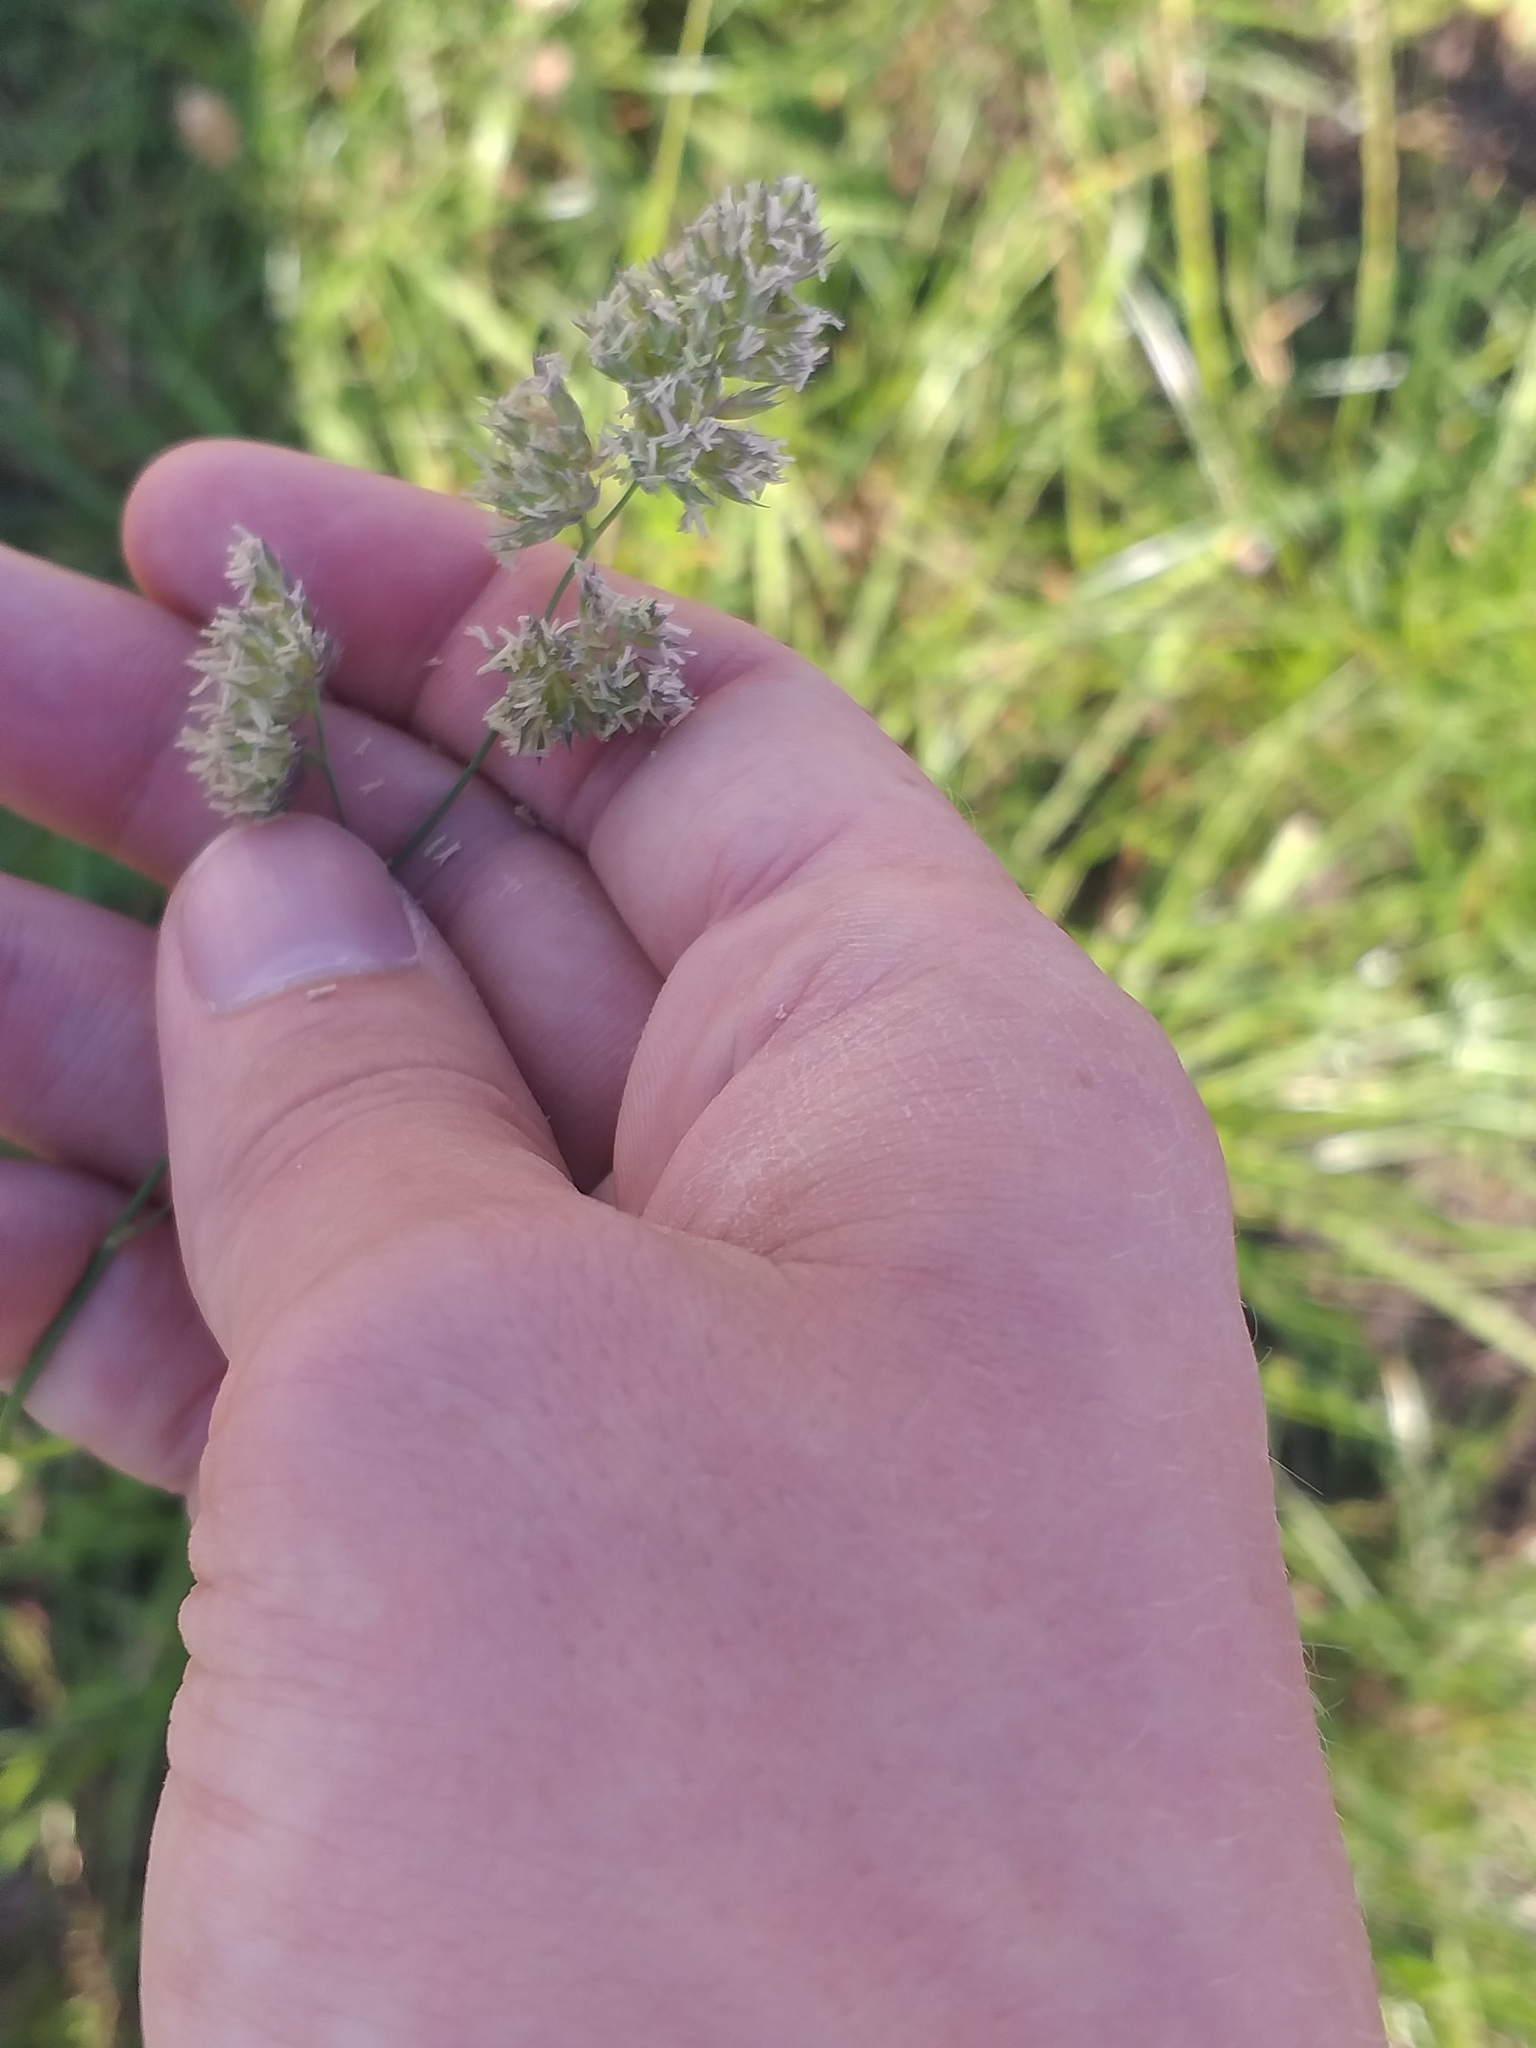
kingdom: Plantae
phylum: Tracheophyta
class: Liliopsida
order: Poales
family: Poaceae
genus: Dactylis
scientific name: Dactylis glomerata
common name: Orchardgrass
